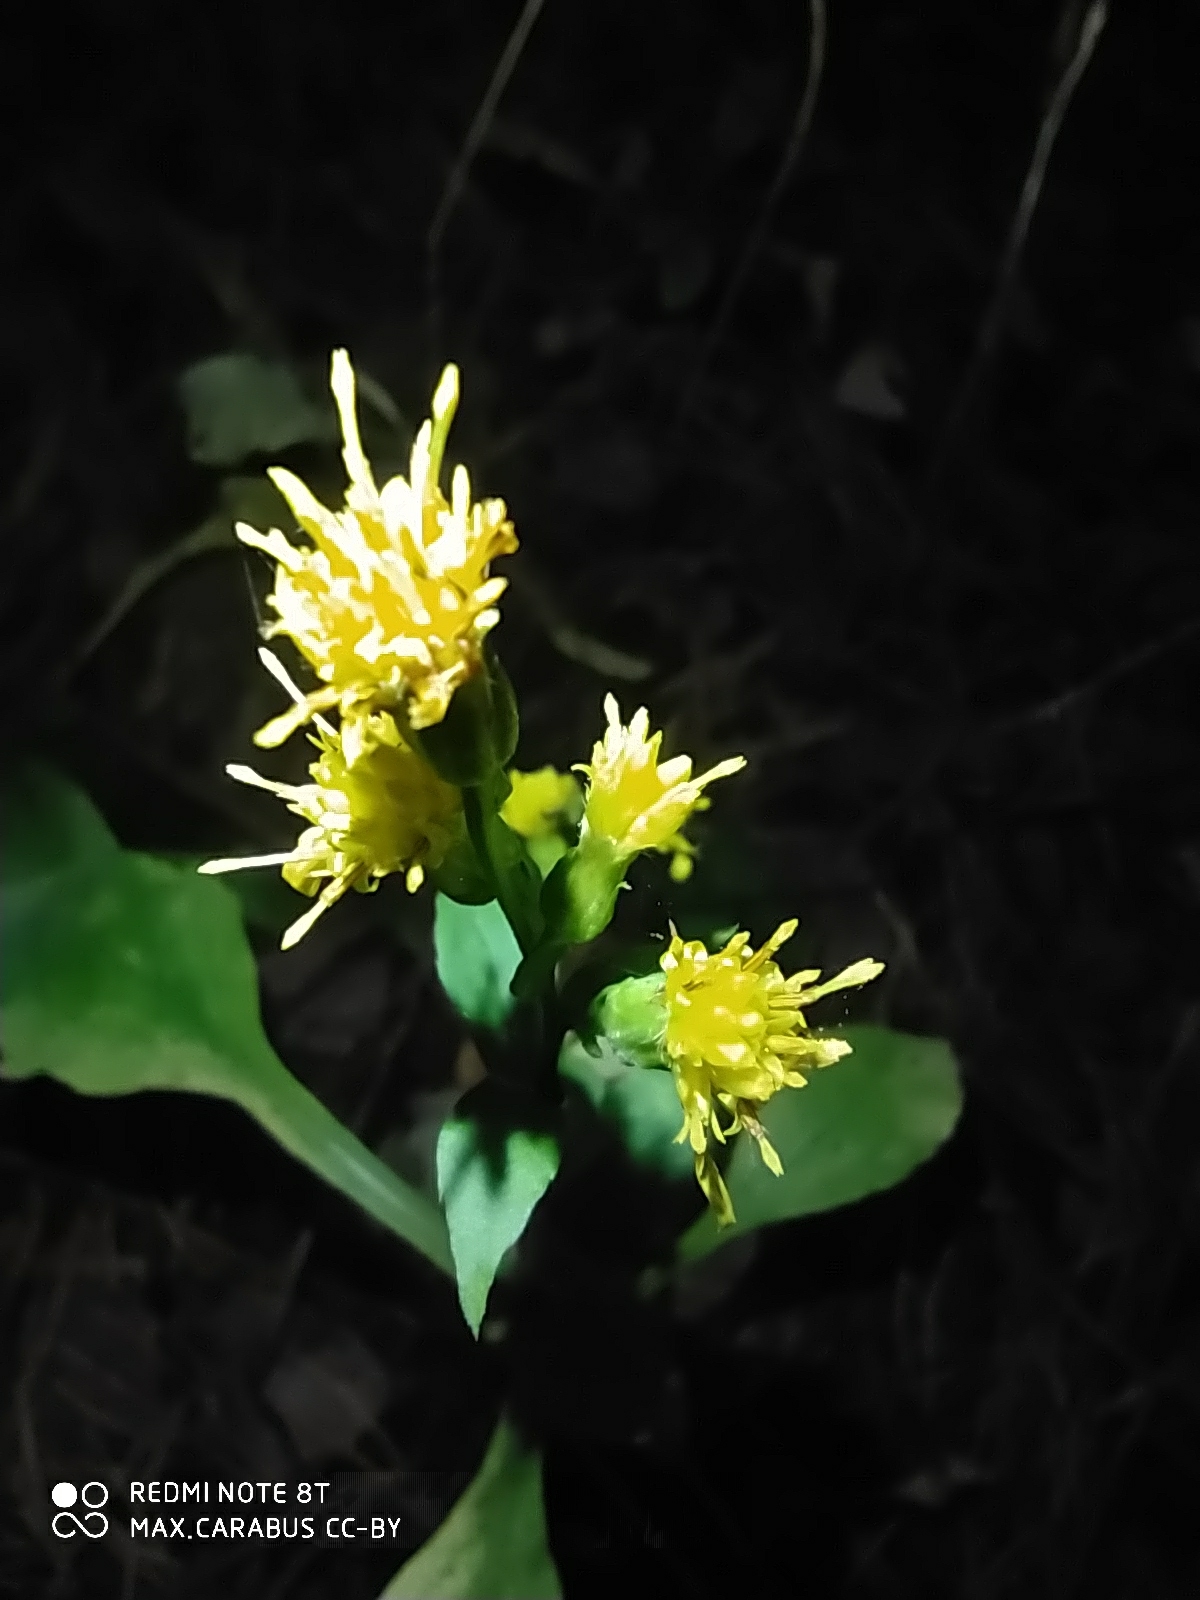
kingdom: Plantae
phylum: Tracheophyta
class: Magnoliopsida
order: Asterales
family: Asteraceae
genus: Solidago
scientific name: Solidago virgaurea
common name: Goldenrod
